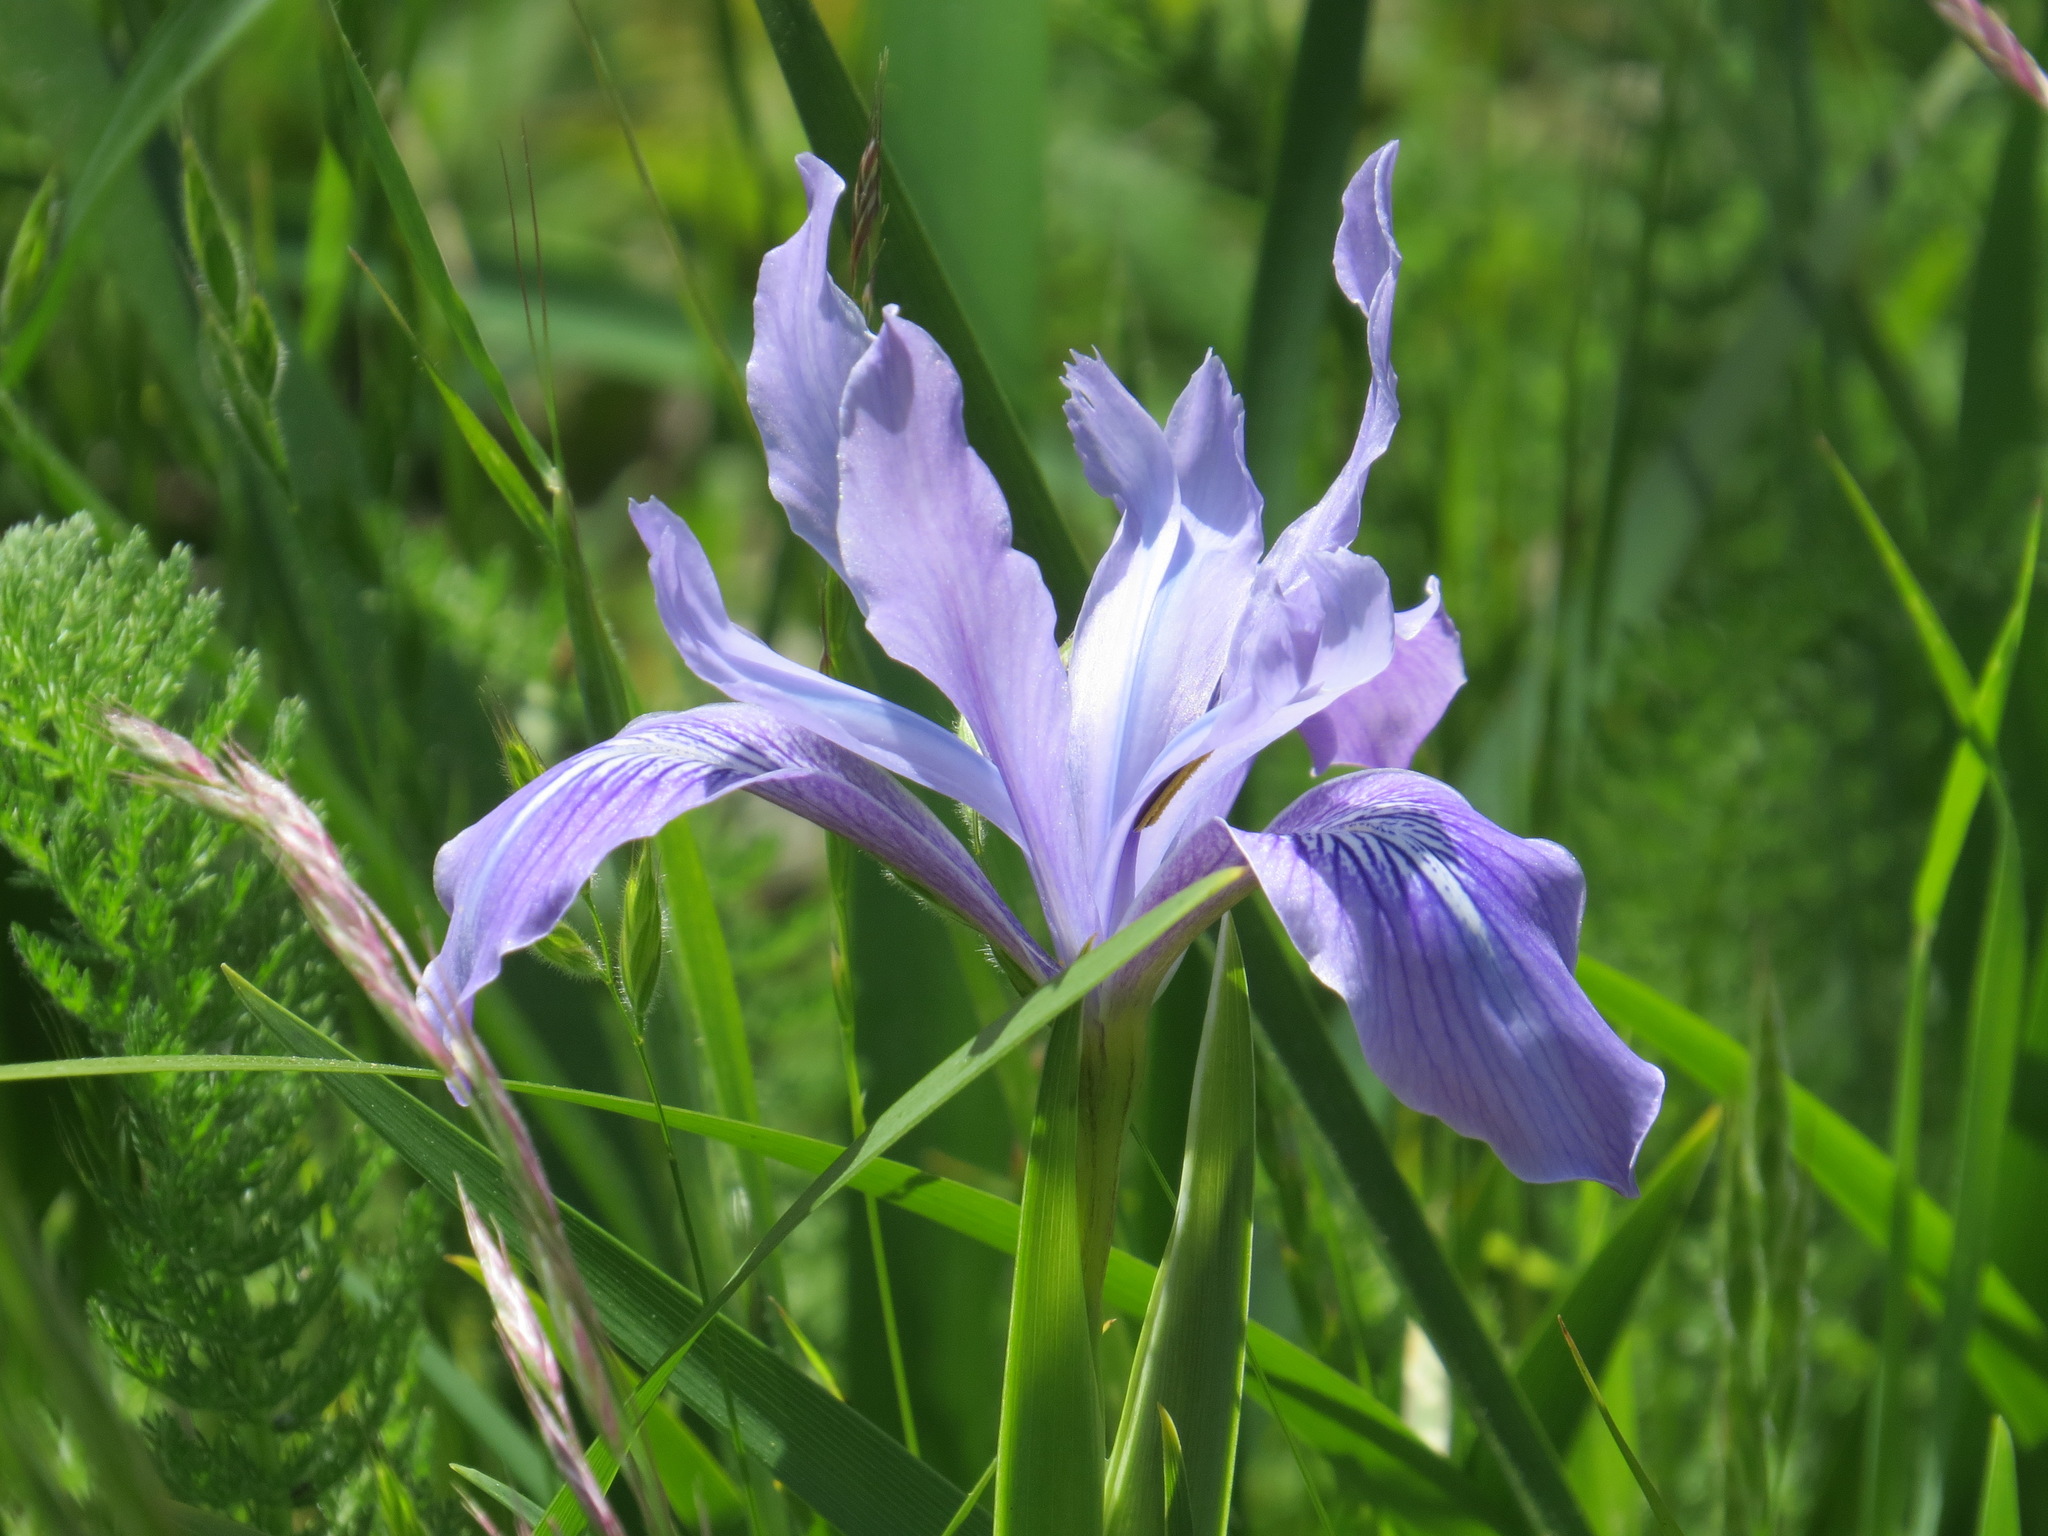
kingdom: Plantae
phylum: Tracheophyta
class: Liliopsida
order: Asparagales
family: Iridaceae
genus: Iris
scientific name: Iris douglasiana
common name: Marin iris
